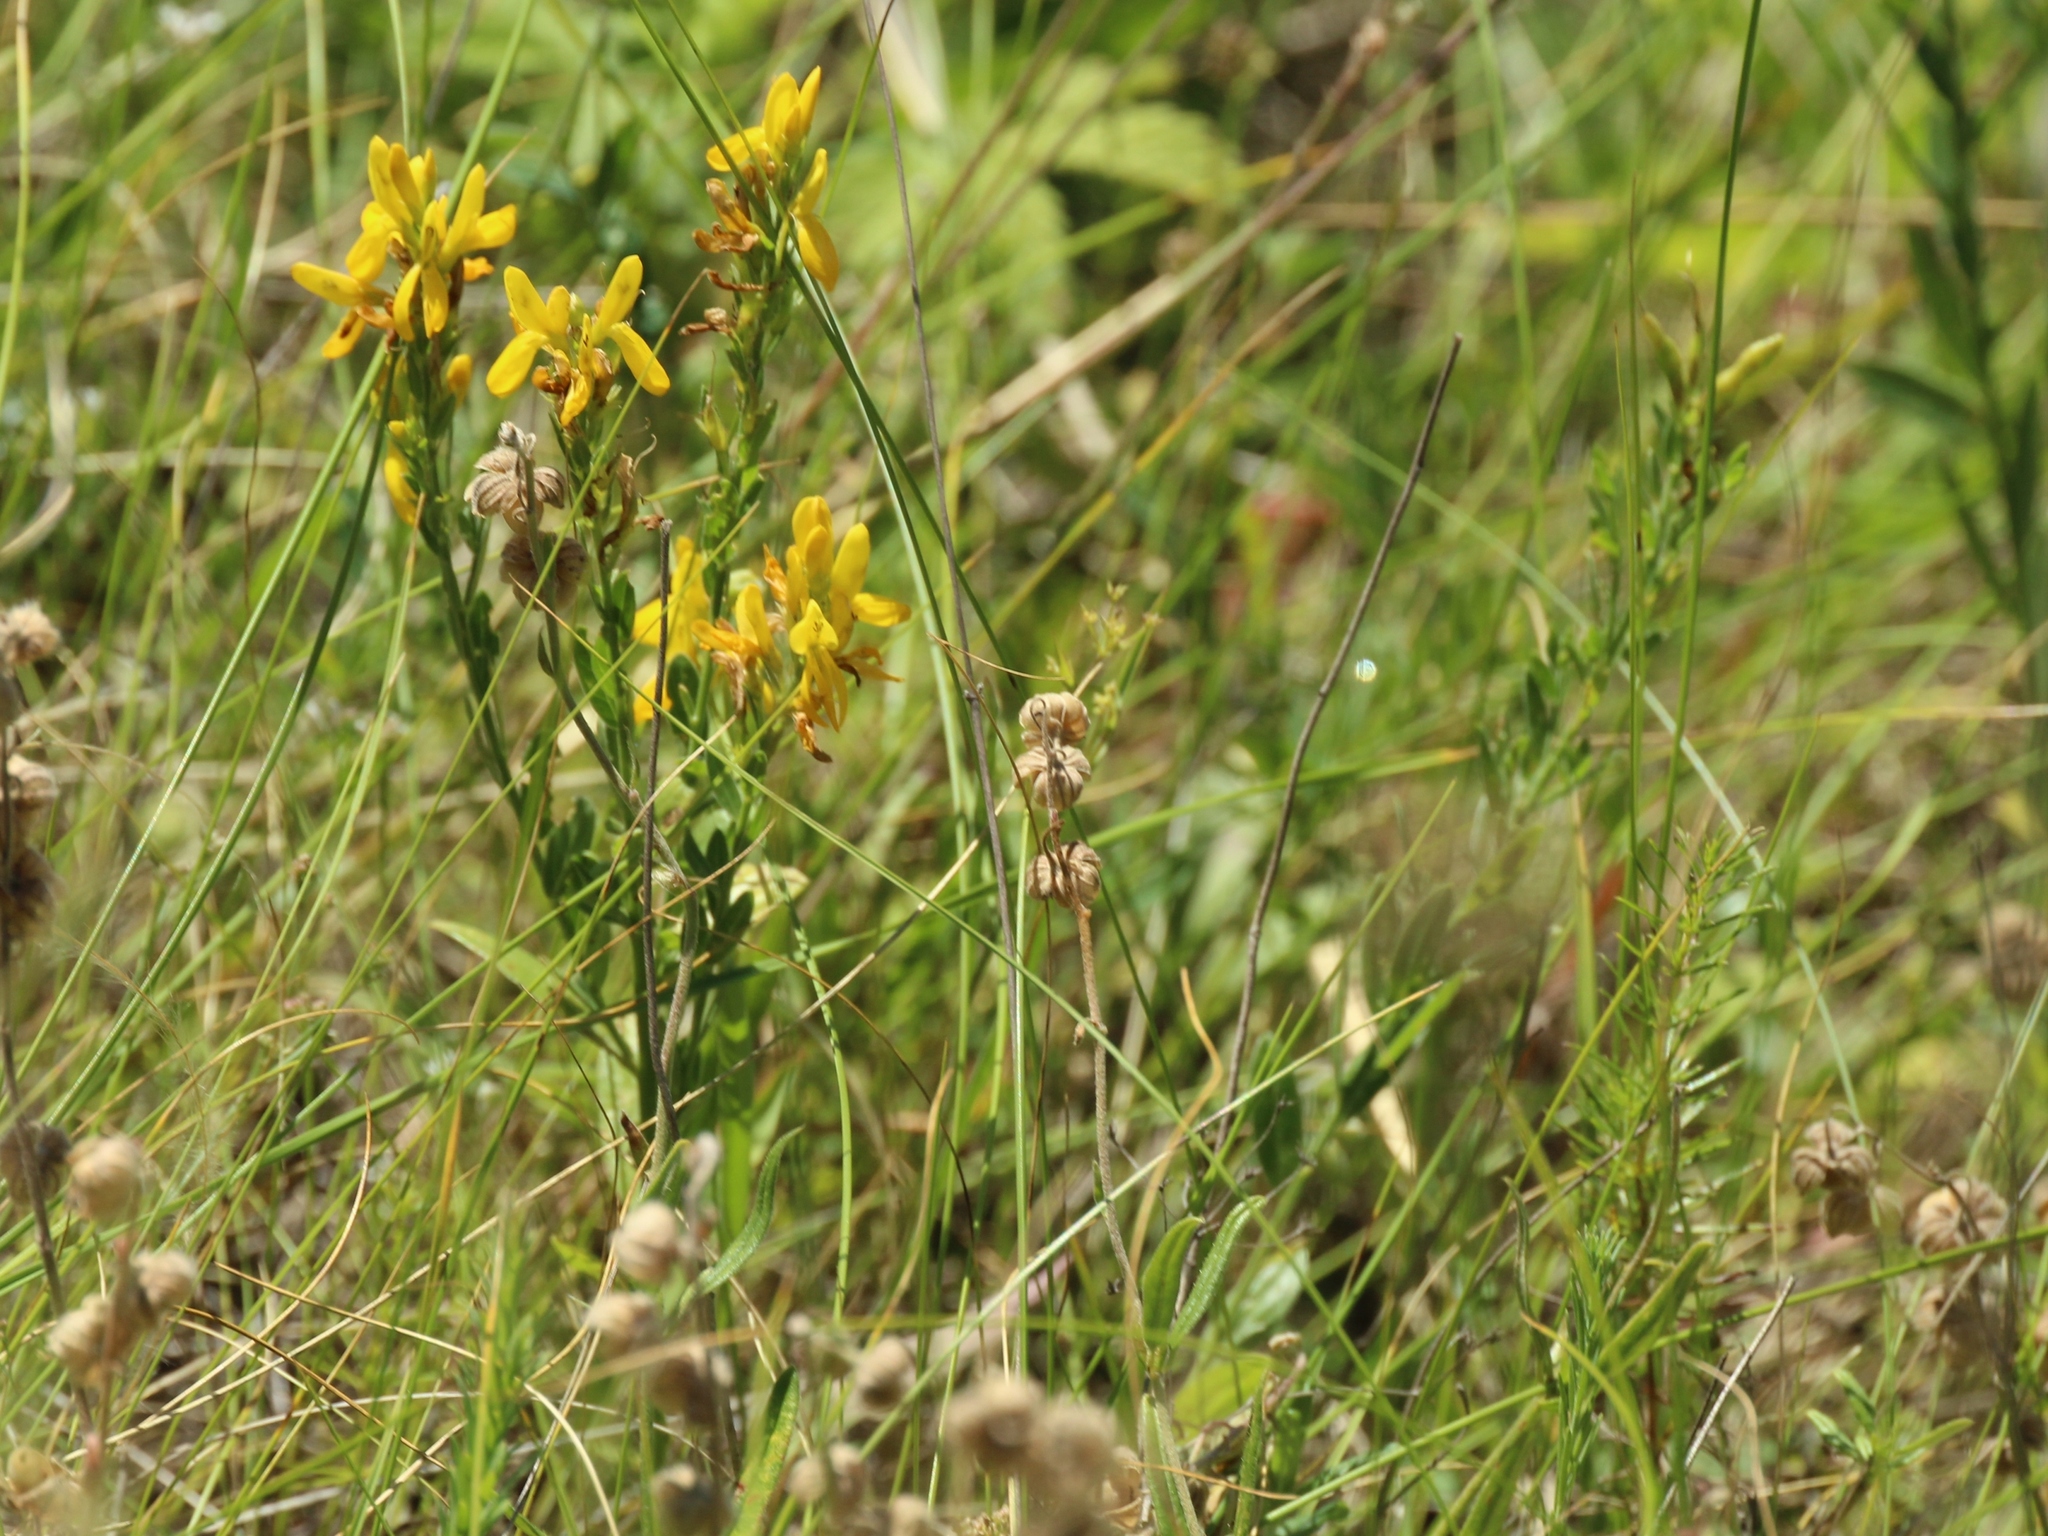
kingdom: Plantae
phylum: Tracheophyta
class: Magnoliopsida
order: Fabales
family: Fabaceae
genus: Genista
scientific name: Genista tinctoria
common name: Dyer's greenweed
